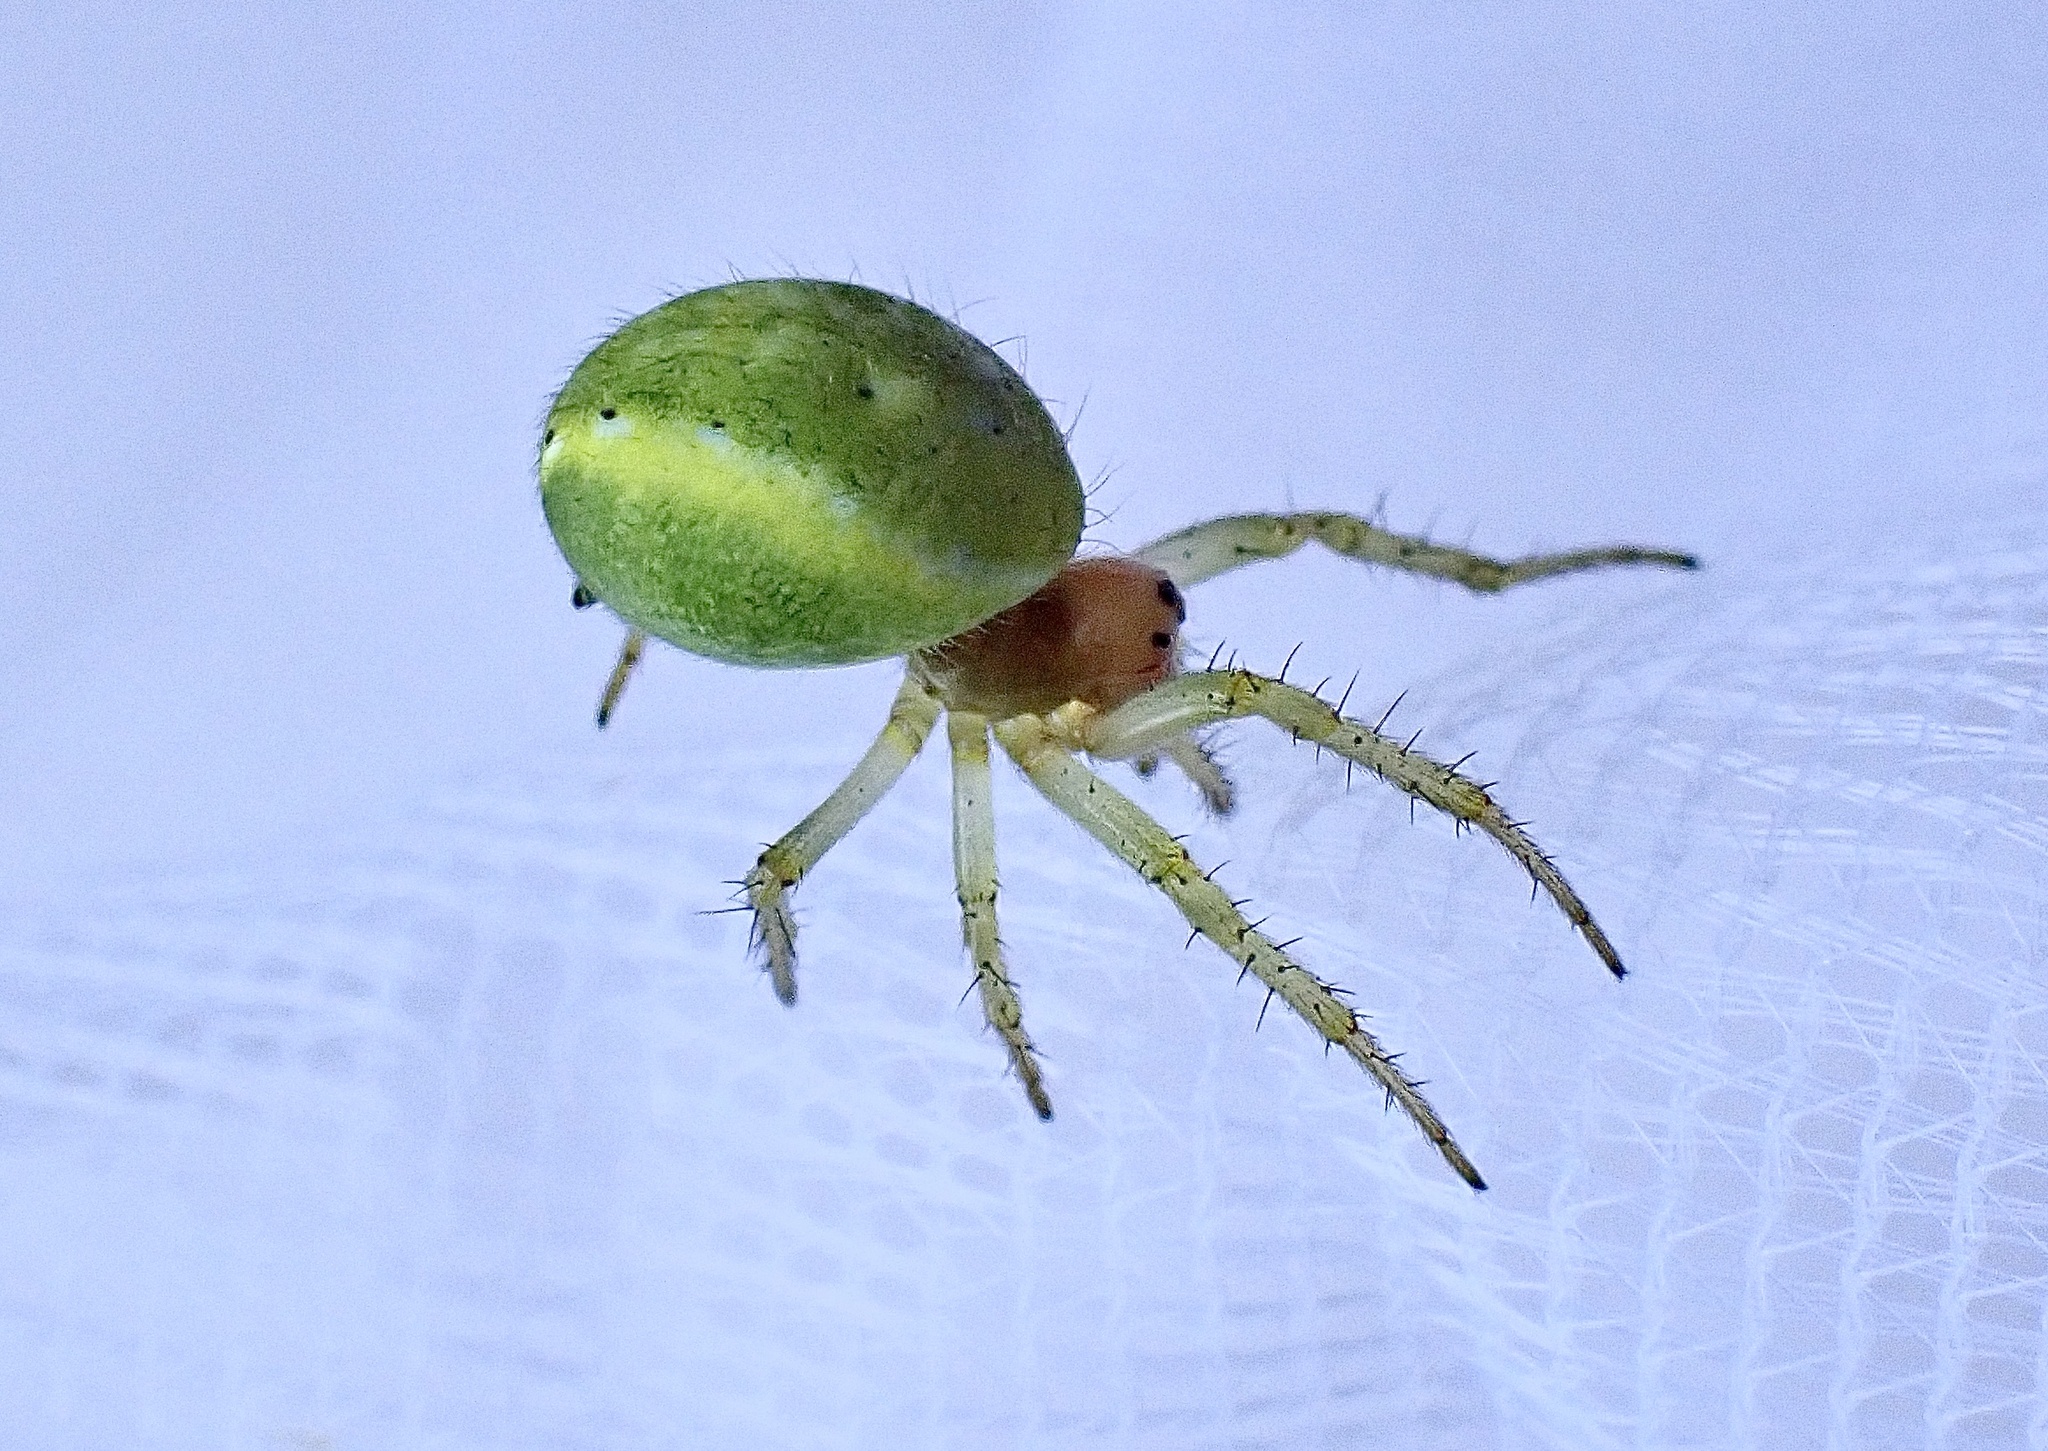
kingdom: Animalia
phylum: Arthropoda
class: Arachnida
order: Araneae
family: Araneidae
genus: Araniella
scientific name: Araniella
